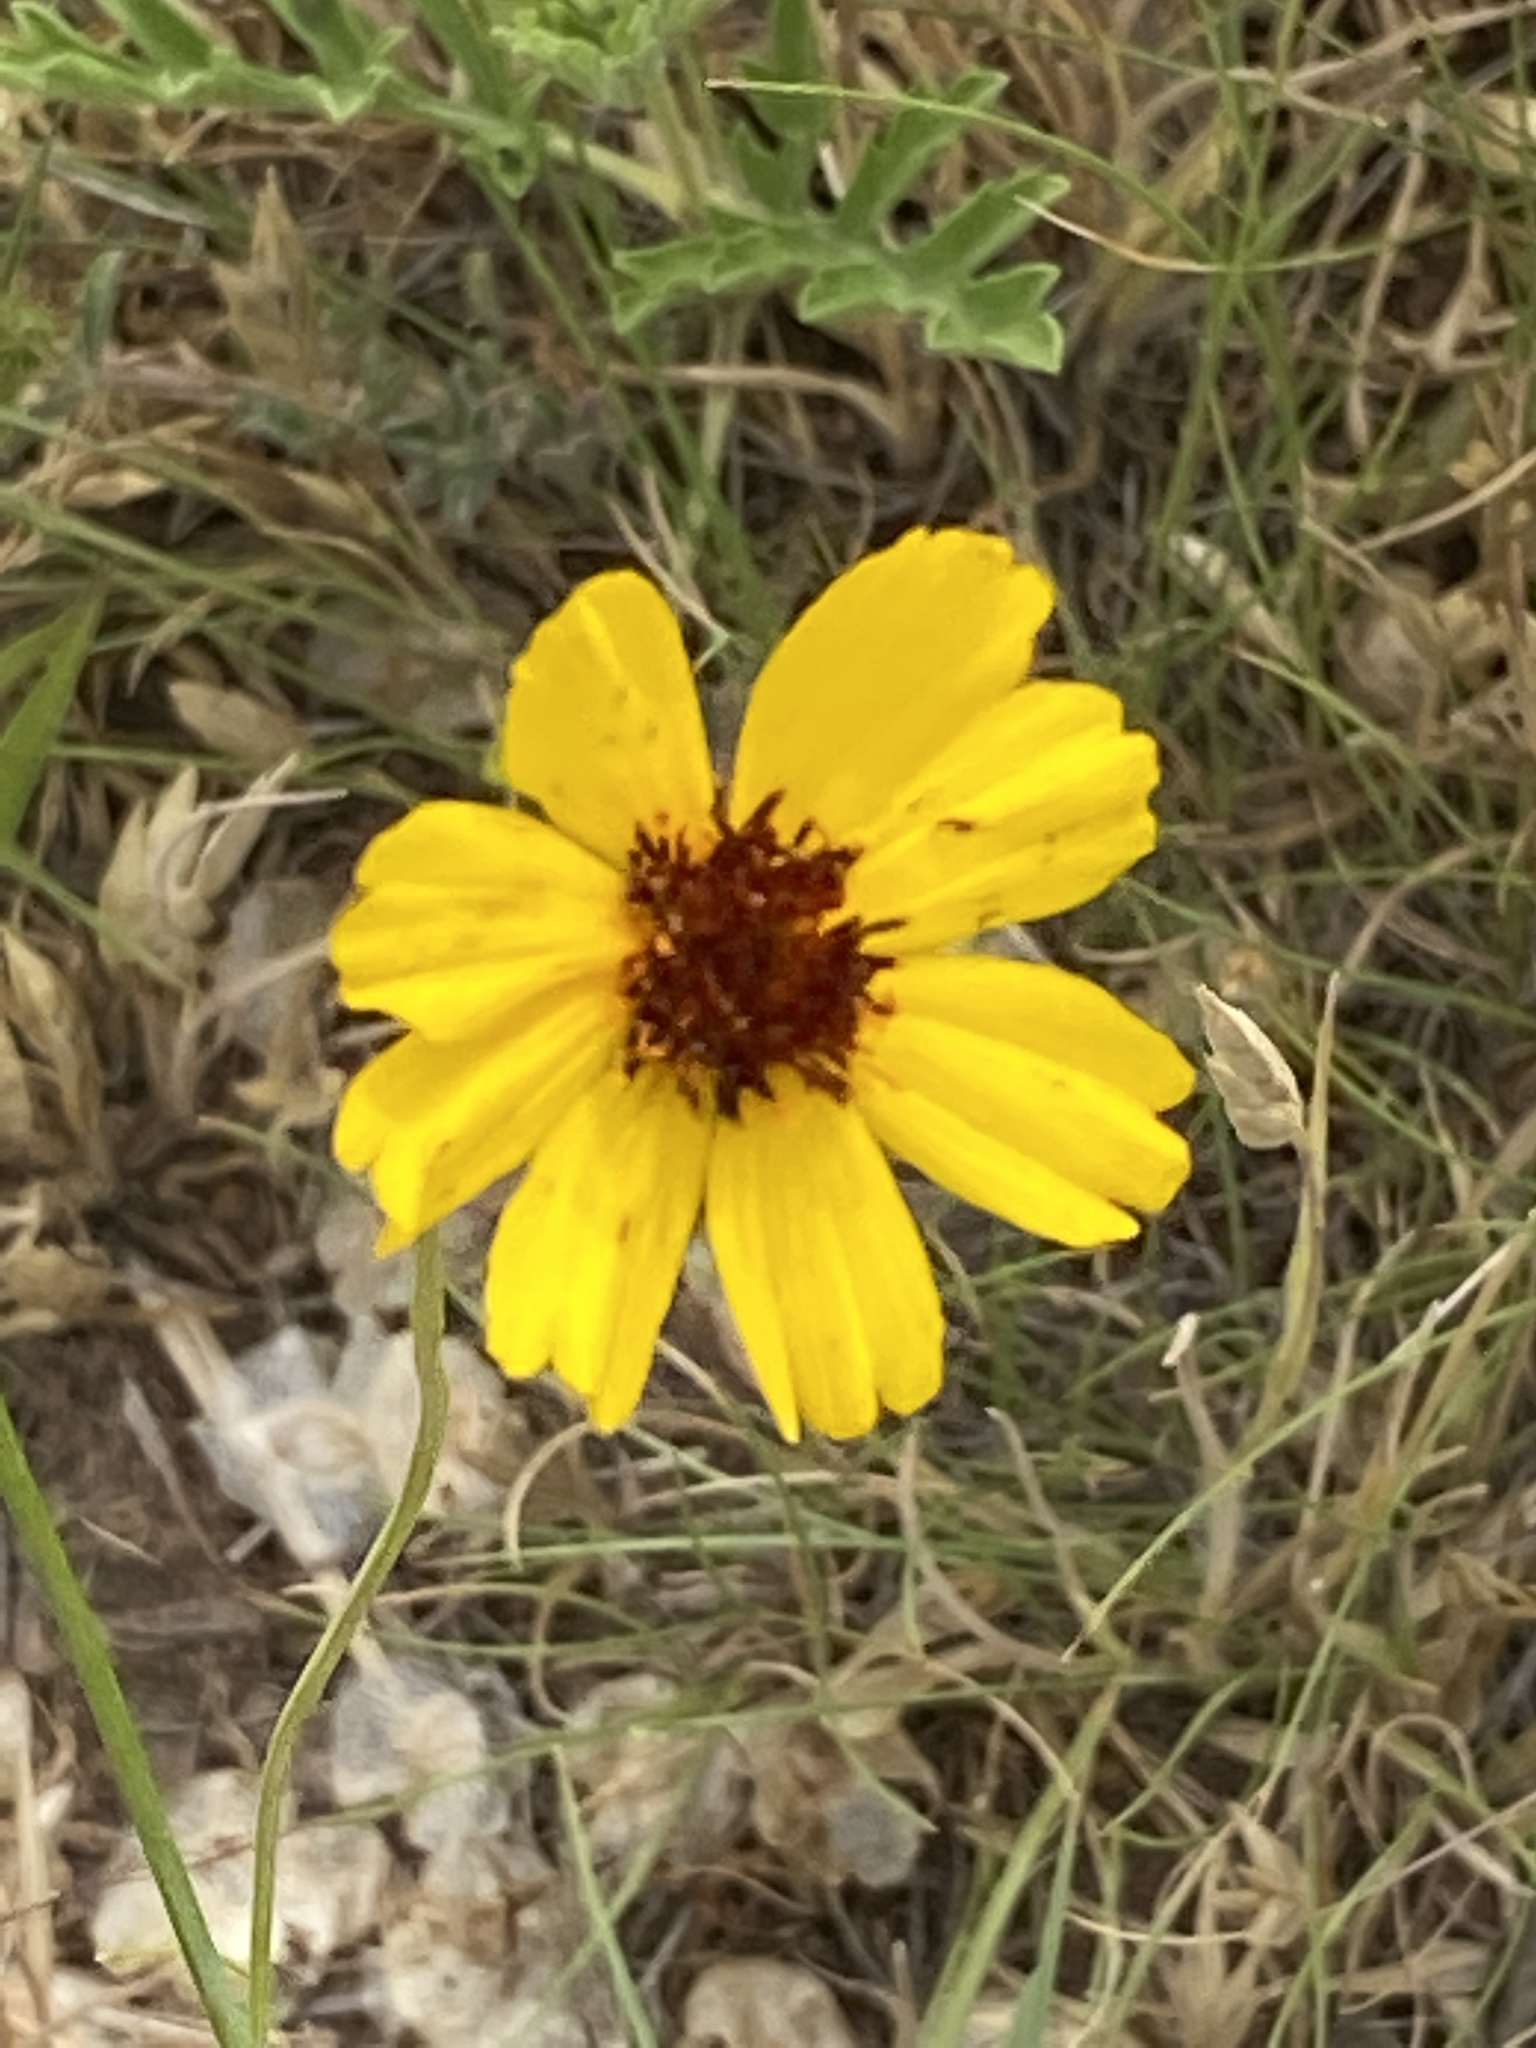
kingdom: Plantae
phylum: Tracheophyta
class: Magnoliopsida
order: Asterales
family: Asteraceae
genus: Thelesperma
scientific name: Thelesperma filifolium
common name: Stiff greenthread
